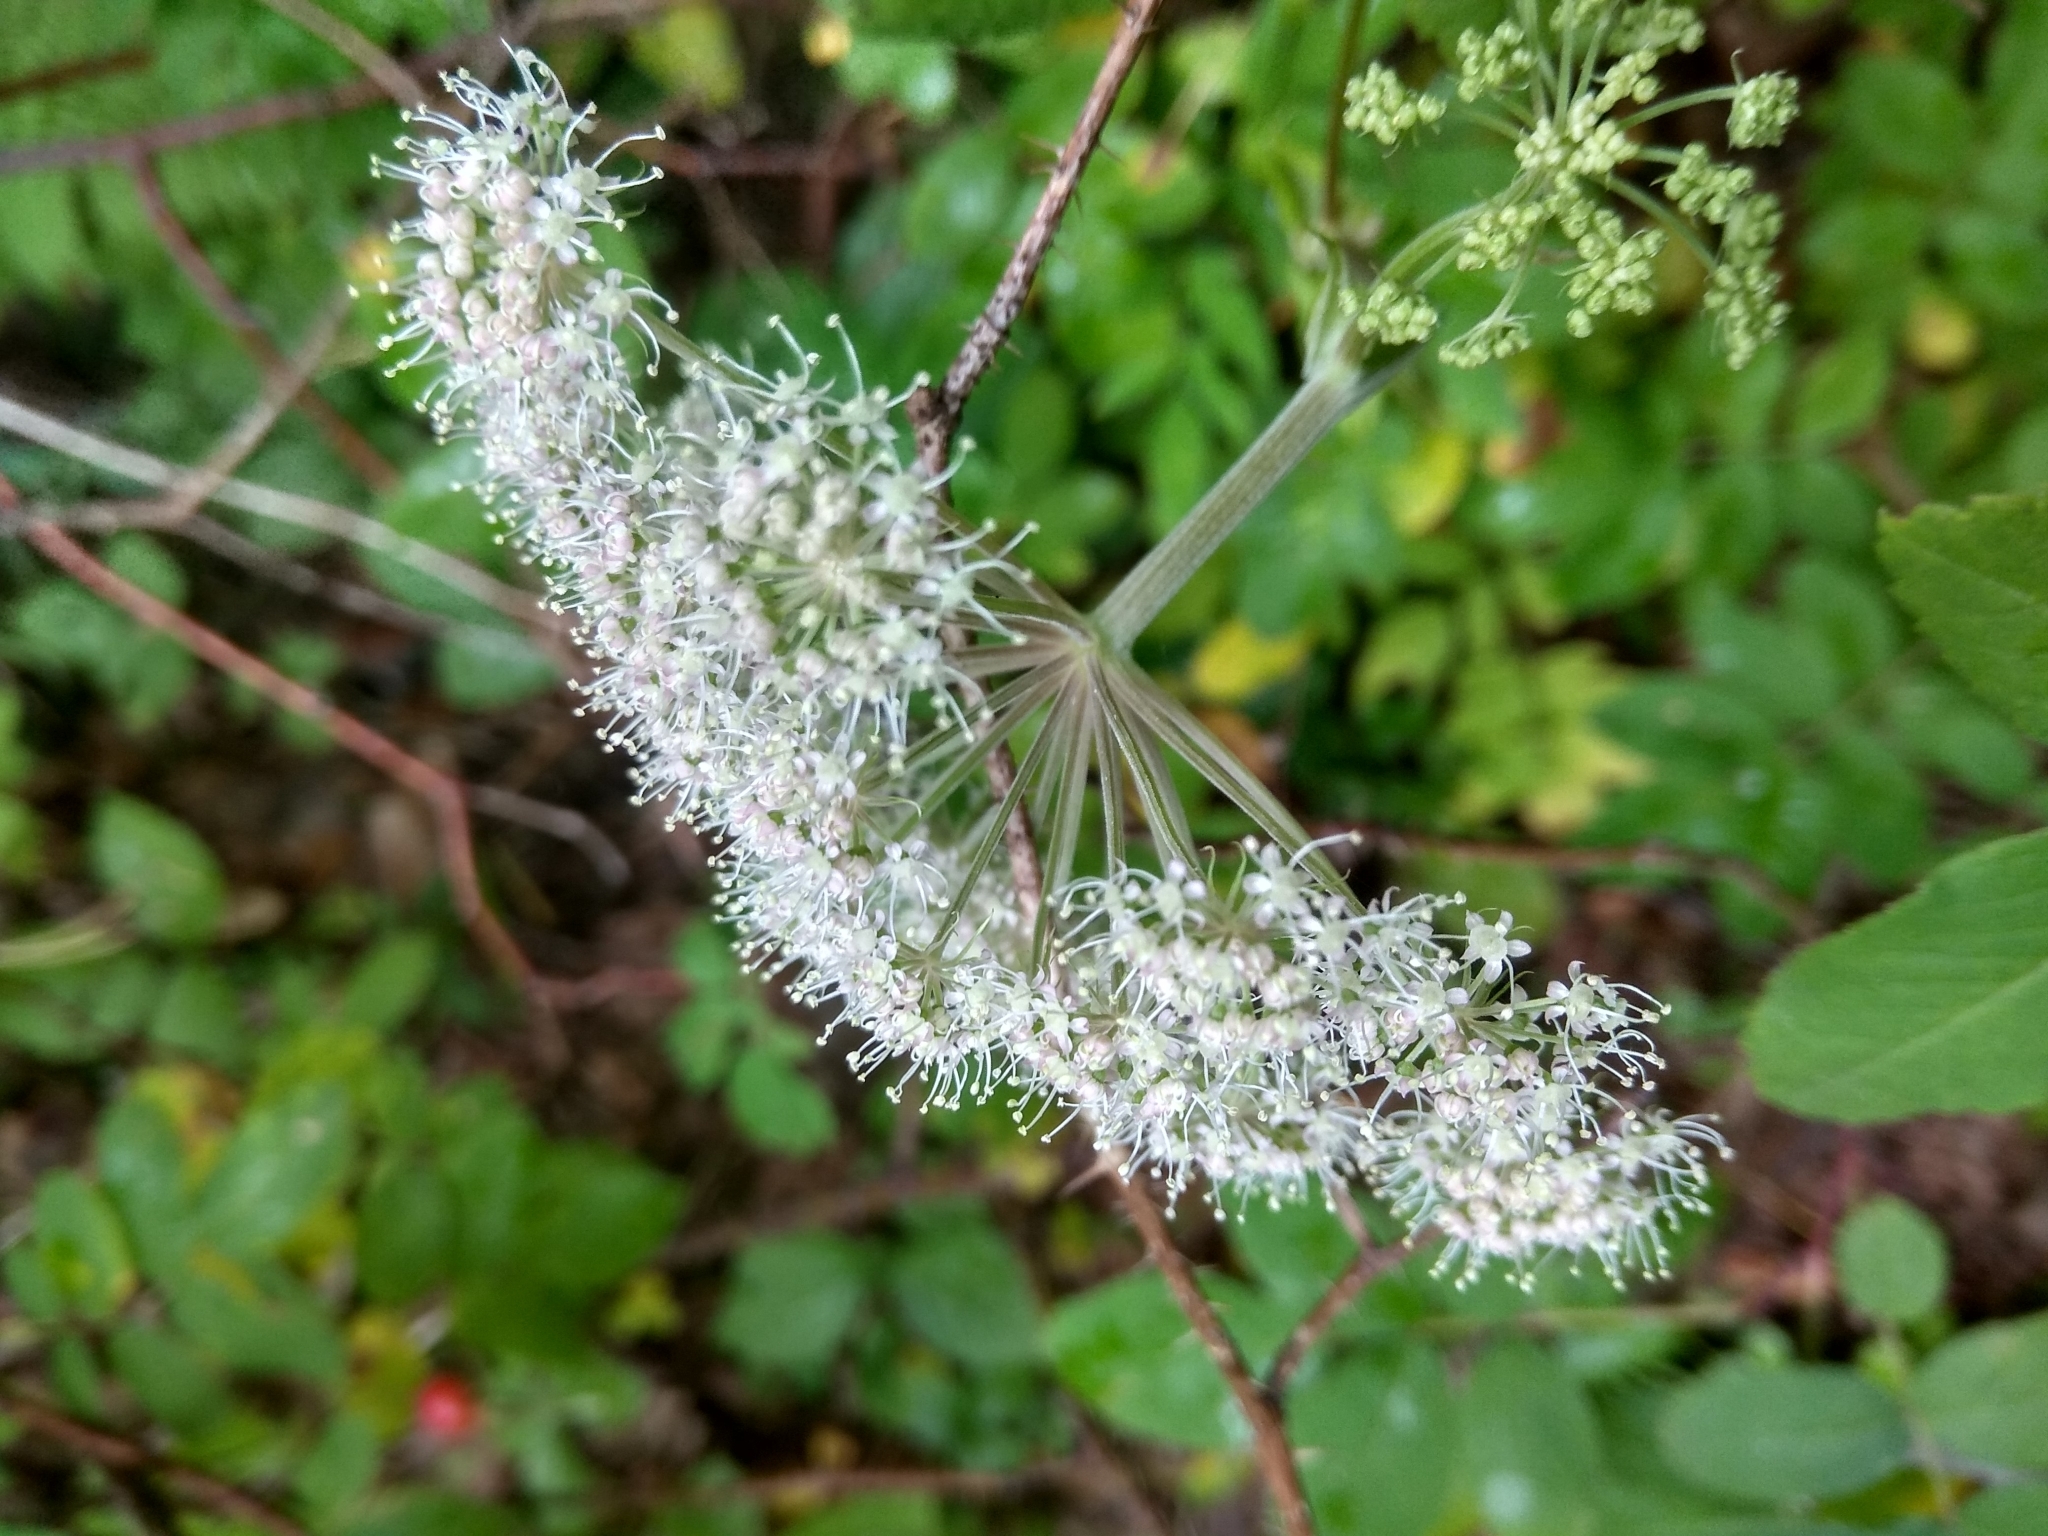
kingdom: Plantae
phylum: Tracheophyta
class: Magnoliopsida
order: Apiales
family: Apiaceae
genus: Angelica
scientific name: Angelica sylvestris
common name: Wild angelica
